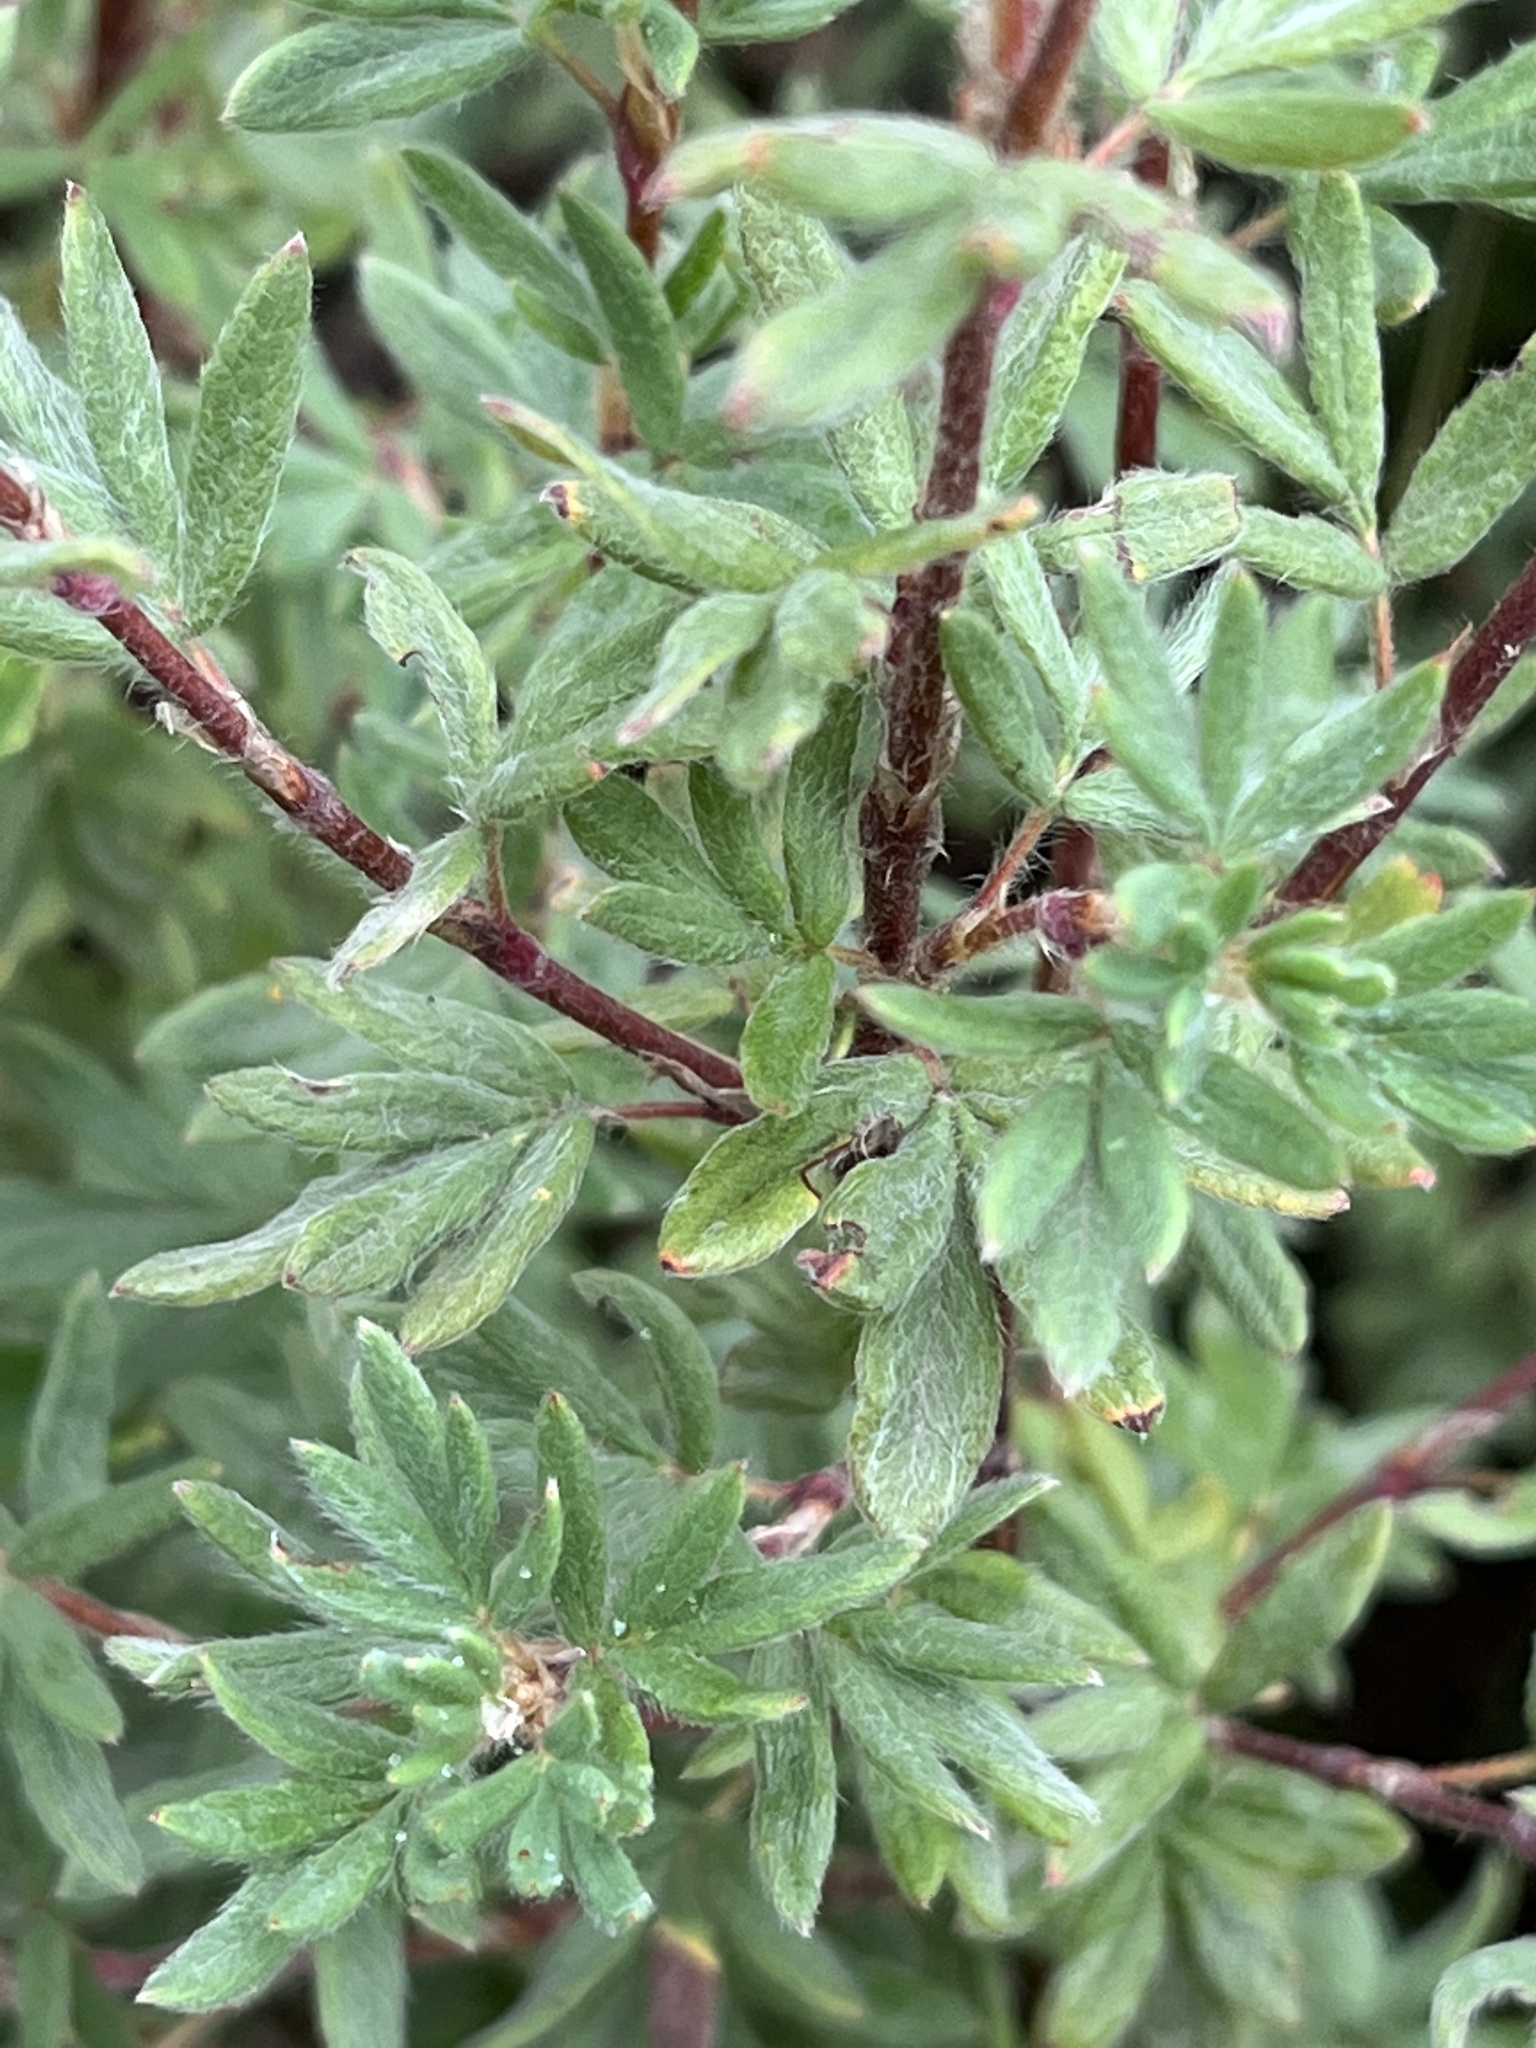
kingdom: Plantae
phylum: Tracheophyta
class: Magnoliopsida
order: Rosales
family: Rosaceae
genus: Dasiphora
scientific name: Dasiphora fruticosa
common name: Shrubby cinquefoil
